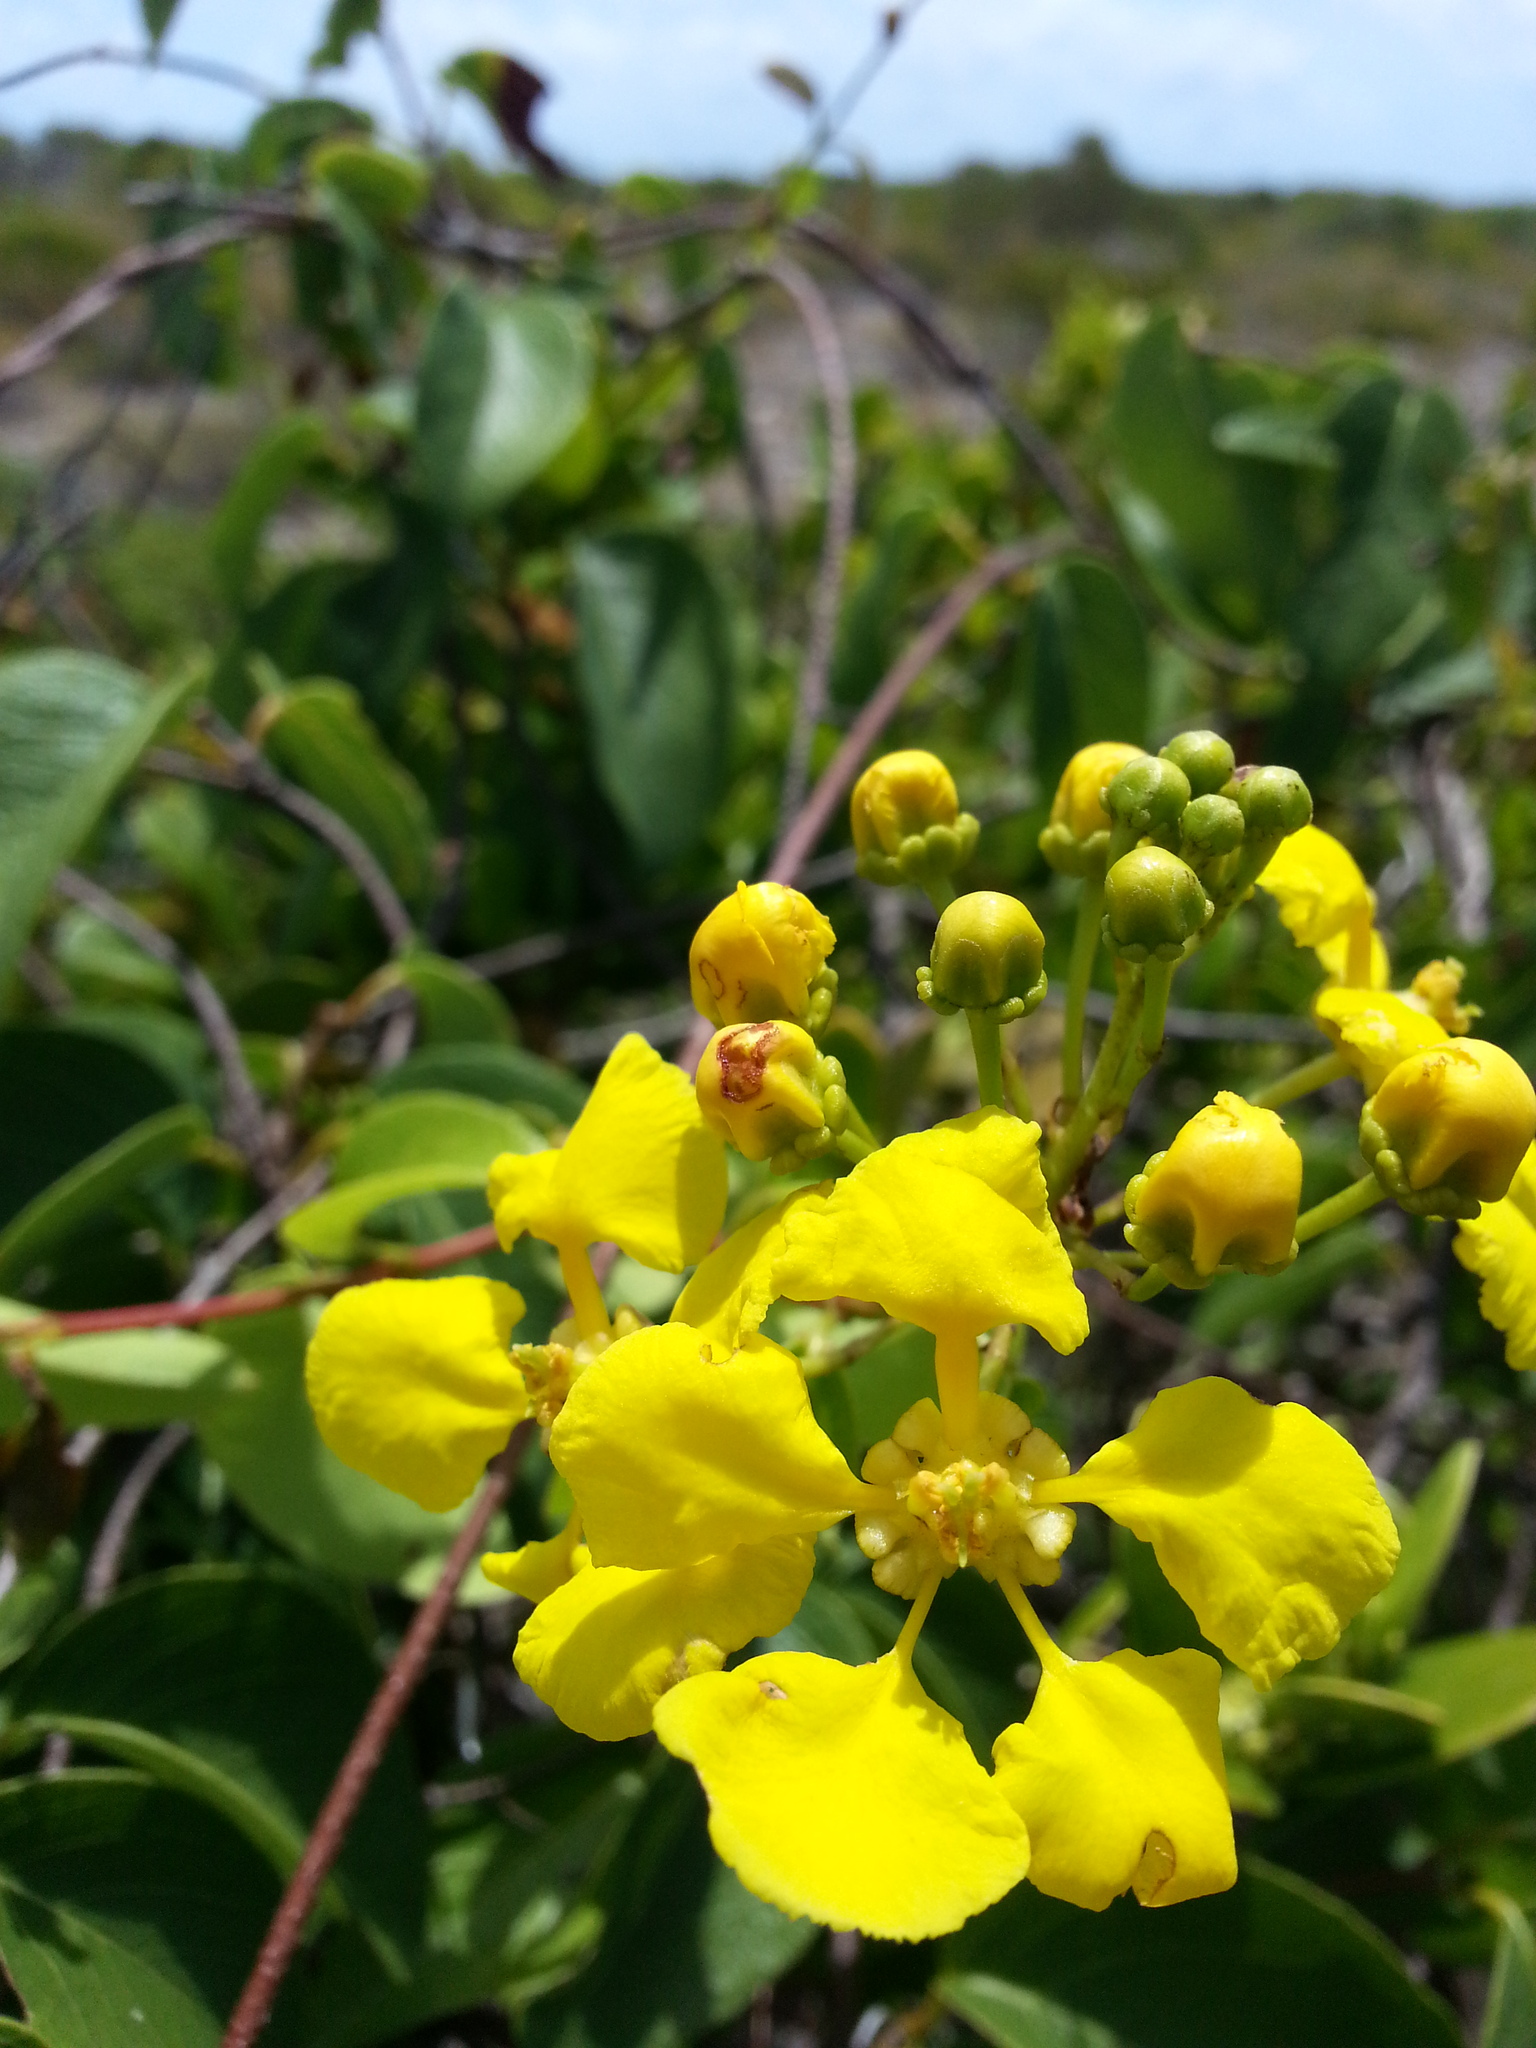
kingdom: Plantae
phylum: Tracheophyta
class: Magnoliopsida
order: Malpighiales
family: Malpighiaceae
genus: Stigmaphyllon
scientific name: Stigmaphyllon emarginatum
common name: Monarch amazonvine
